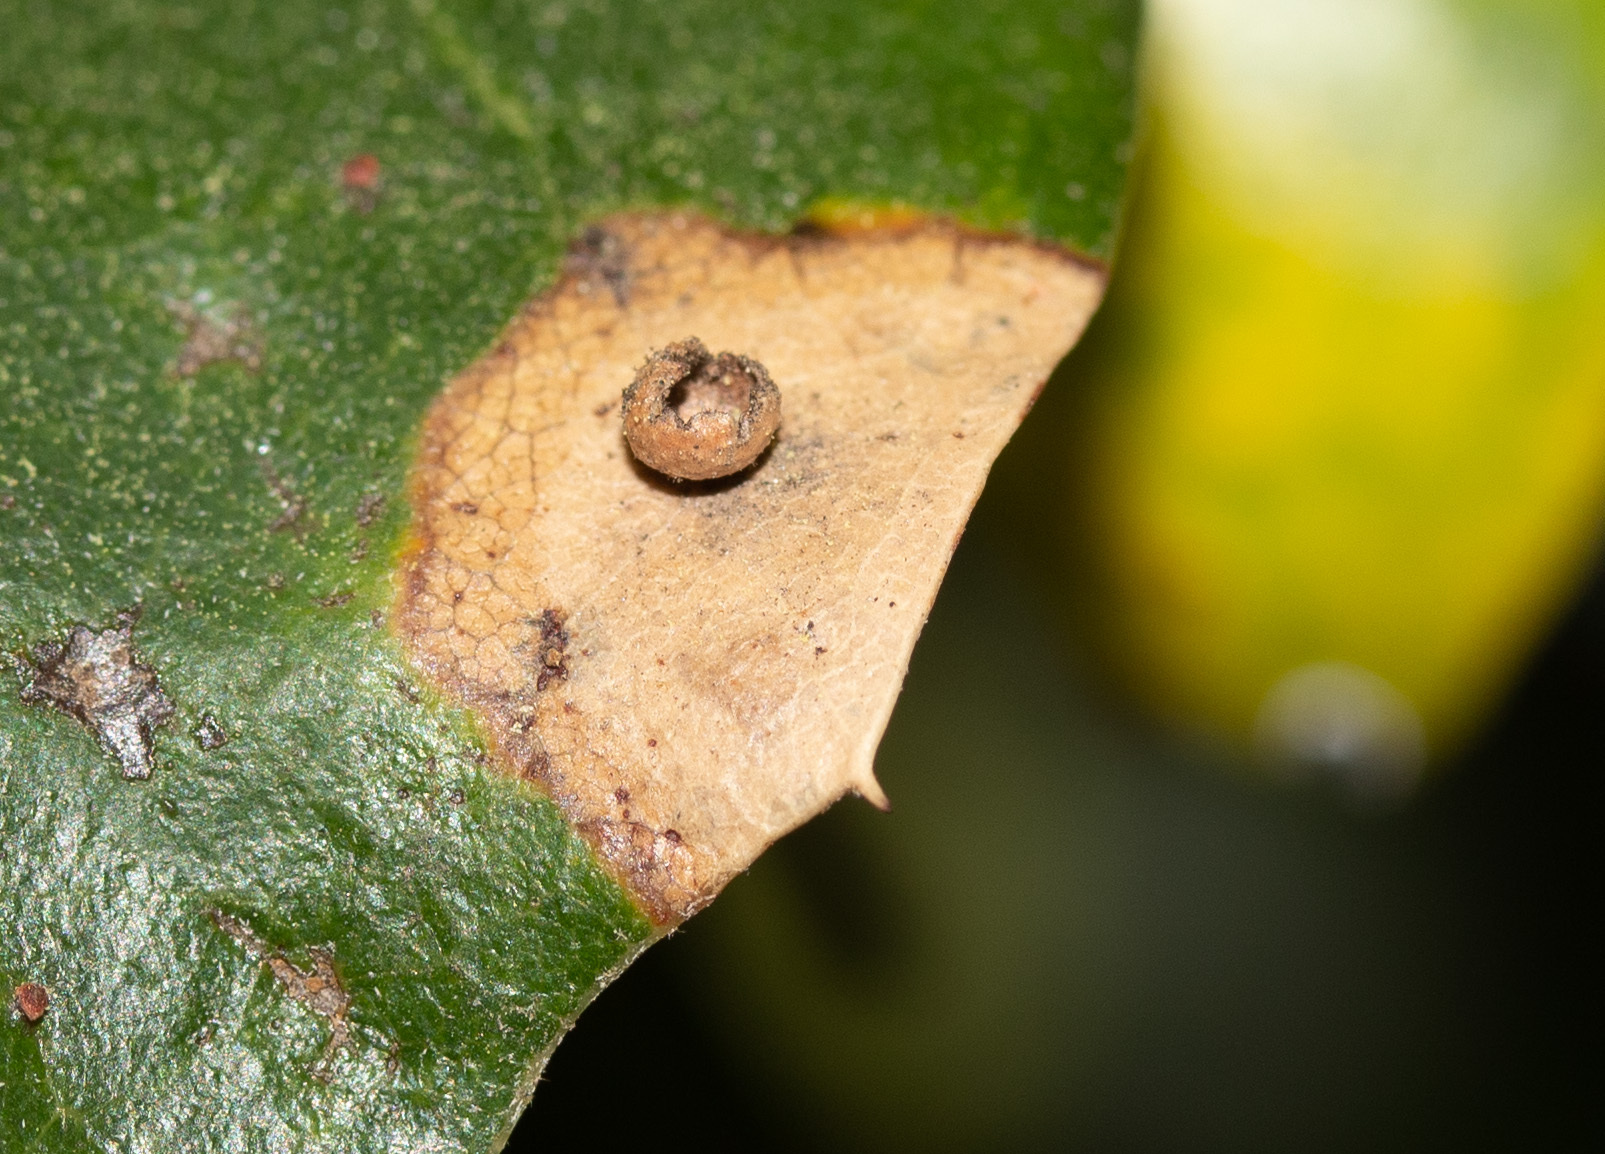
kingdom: Animalia
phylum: Arthropoda
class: Insecta
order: Hymenoptera
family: Cynipidae
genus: Dryocosmus
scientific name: Dryocosmus
